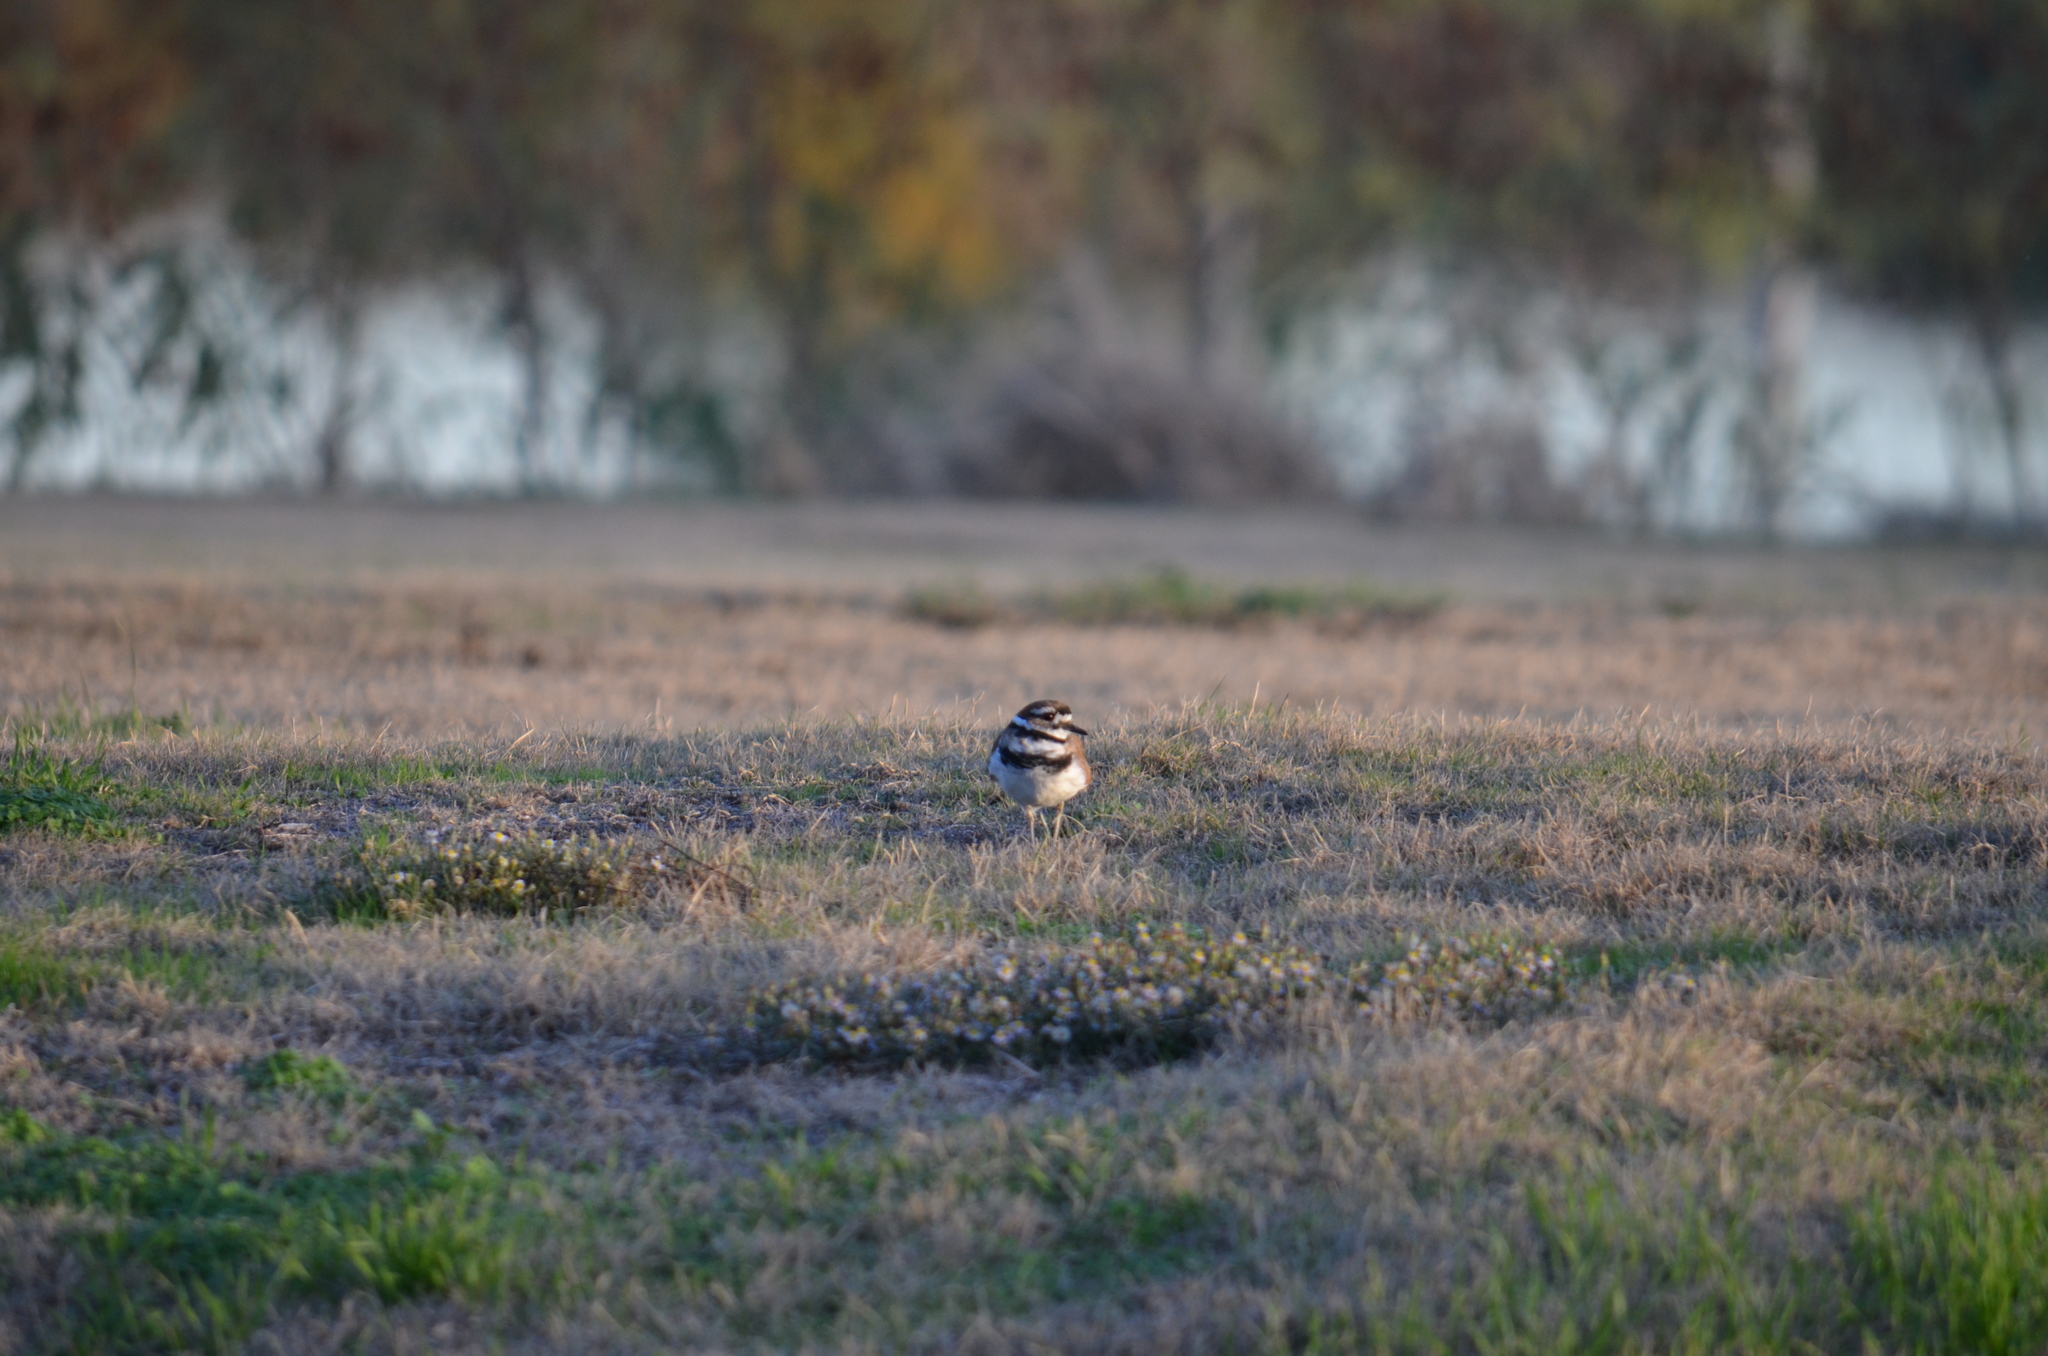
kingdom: Animalia
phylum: Chordata
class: Aves
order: Charadriiformes
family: Charadriidae
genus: Charadrius
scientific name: Charadrius vociferus
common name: Killdeer
